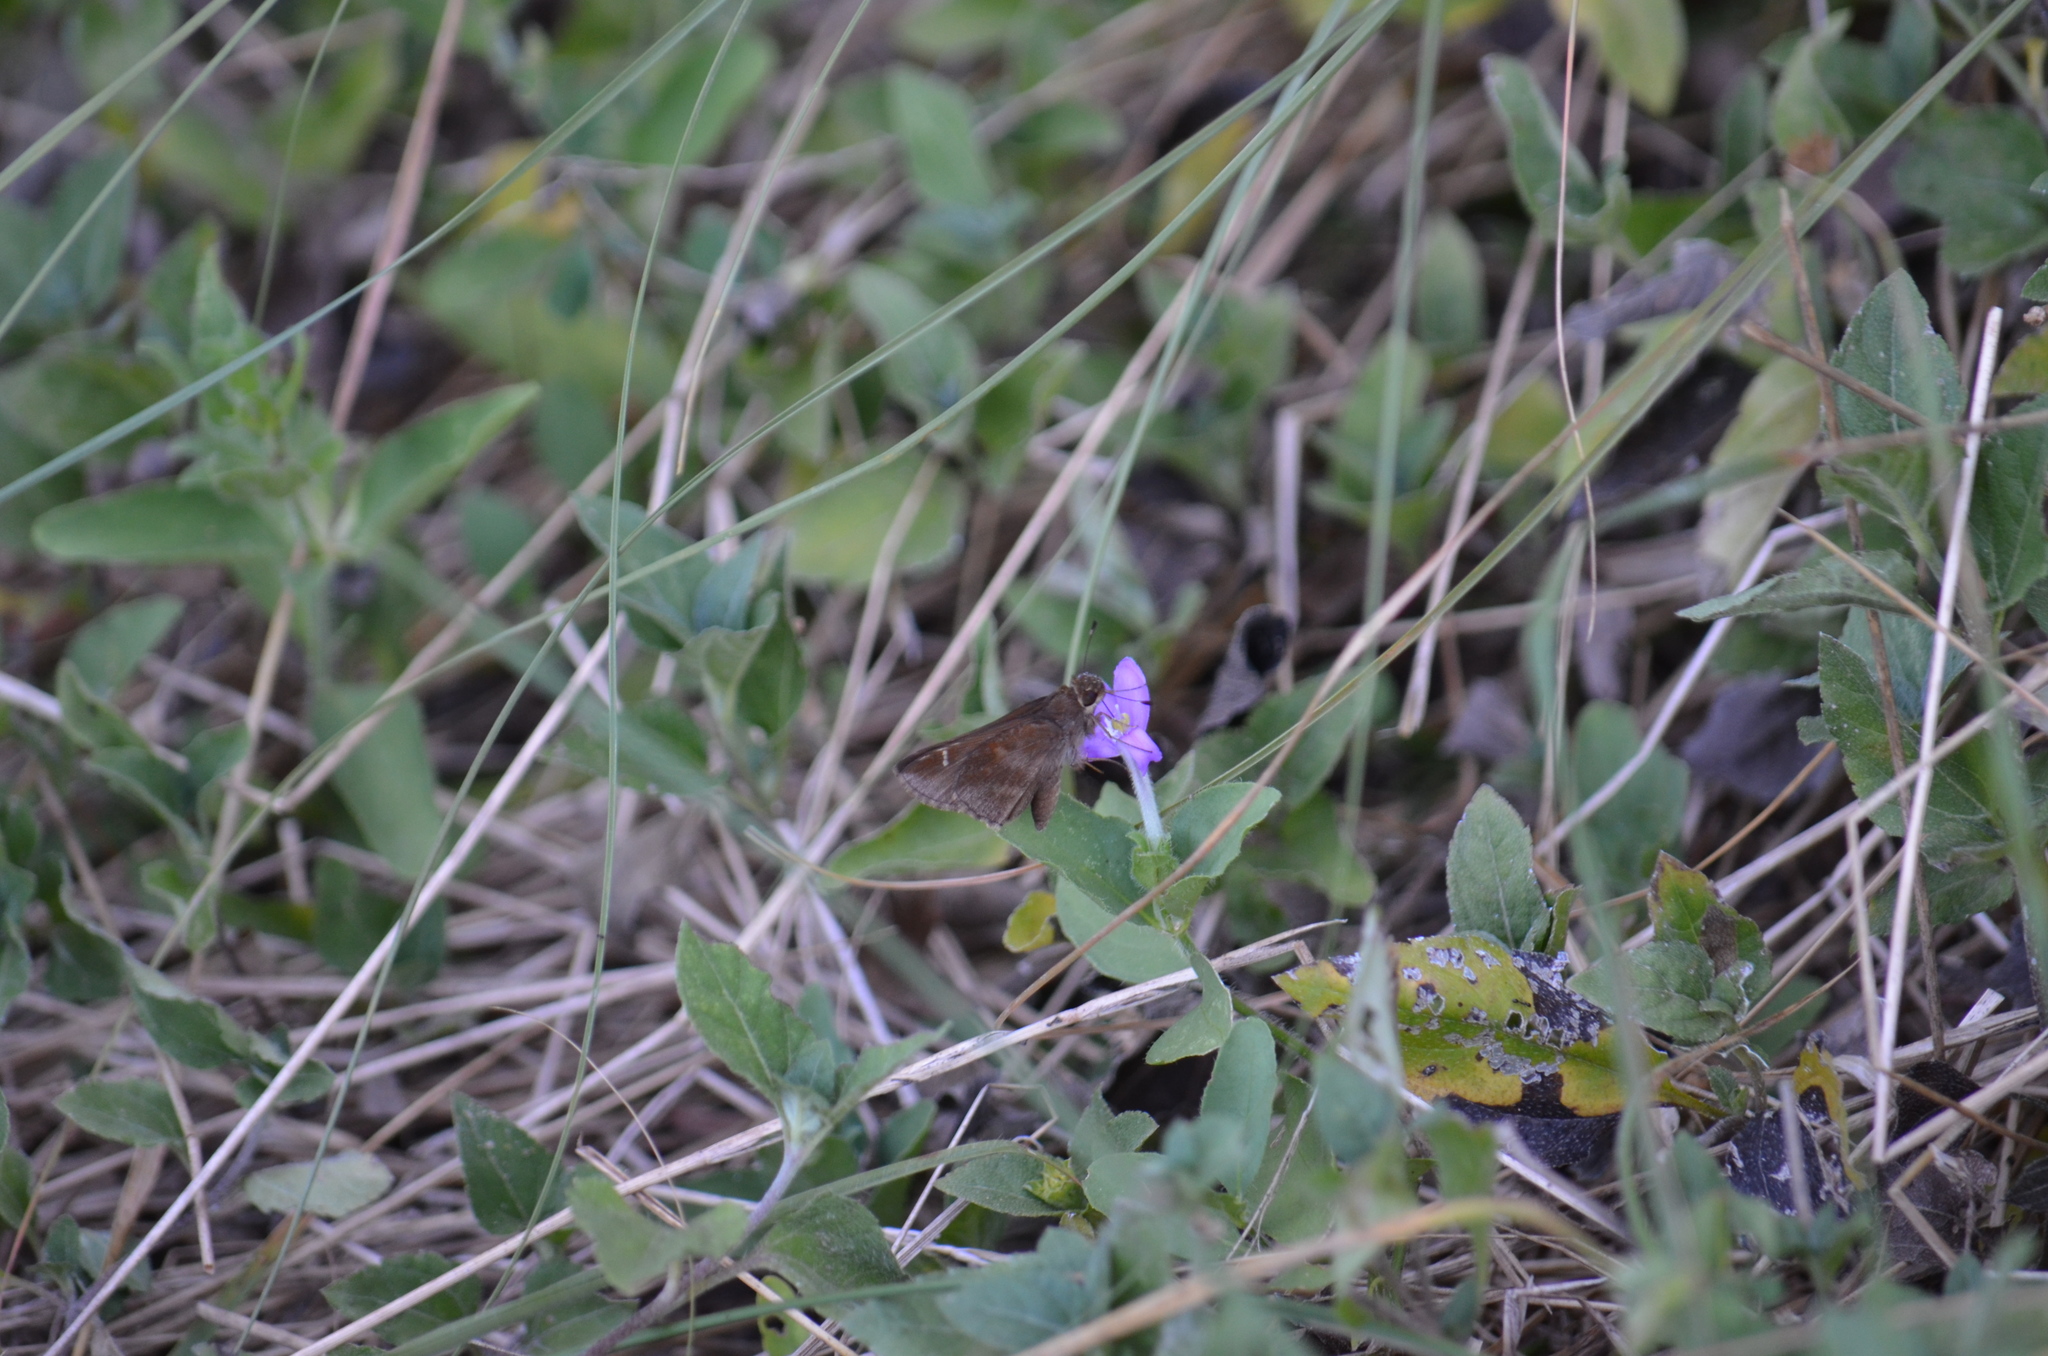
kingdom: Animalia
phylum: Arthropoda
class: Insecta
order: Lepidoptera
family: Hesperiidae
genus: Lerema
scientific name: Lerema accius
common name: Clouded skipper
